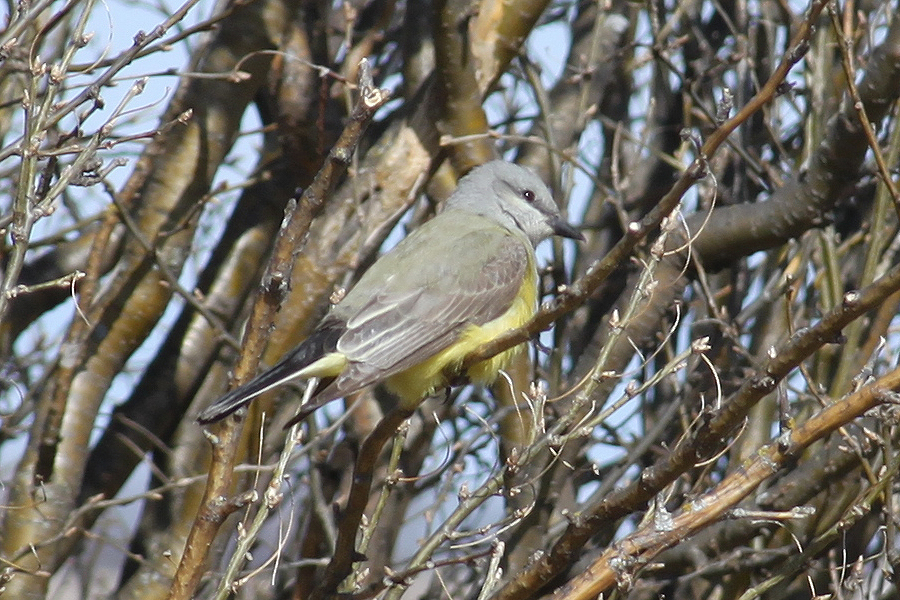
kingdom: Animalia
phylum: Chordata
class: Aves
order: Passeriformes
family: Tyrannidae
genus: Tyrannus
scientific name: Tyrannus verticalis
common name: Western kingbird
